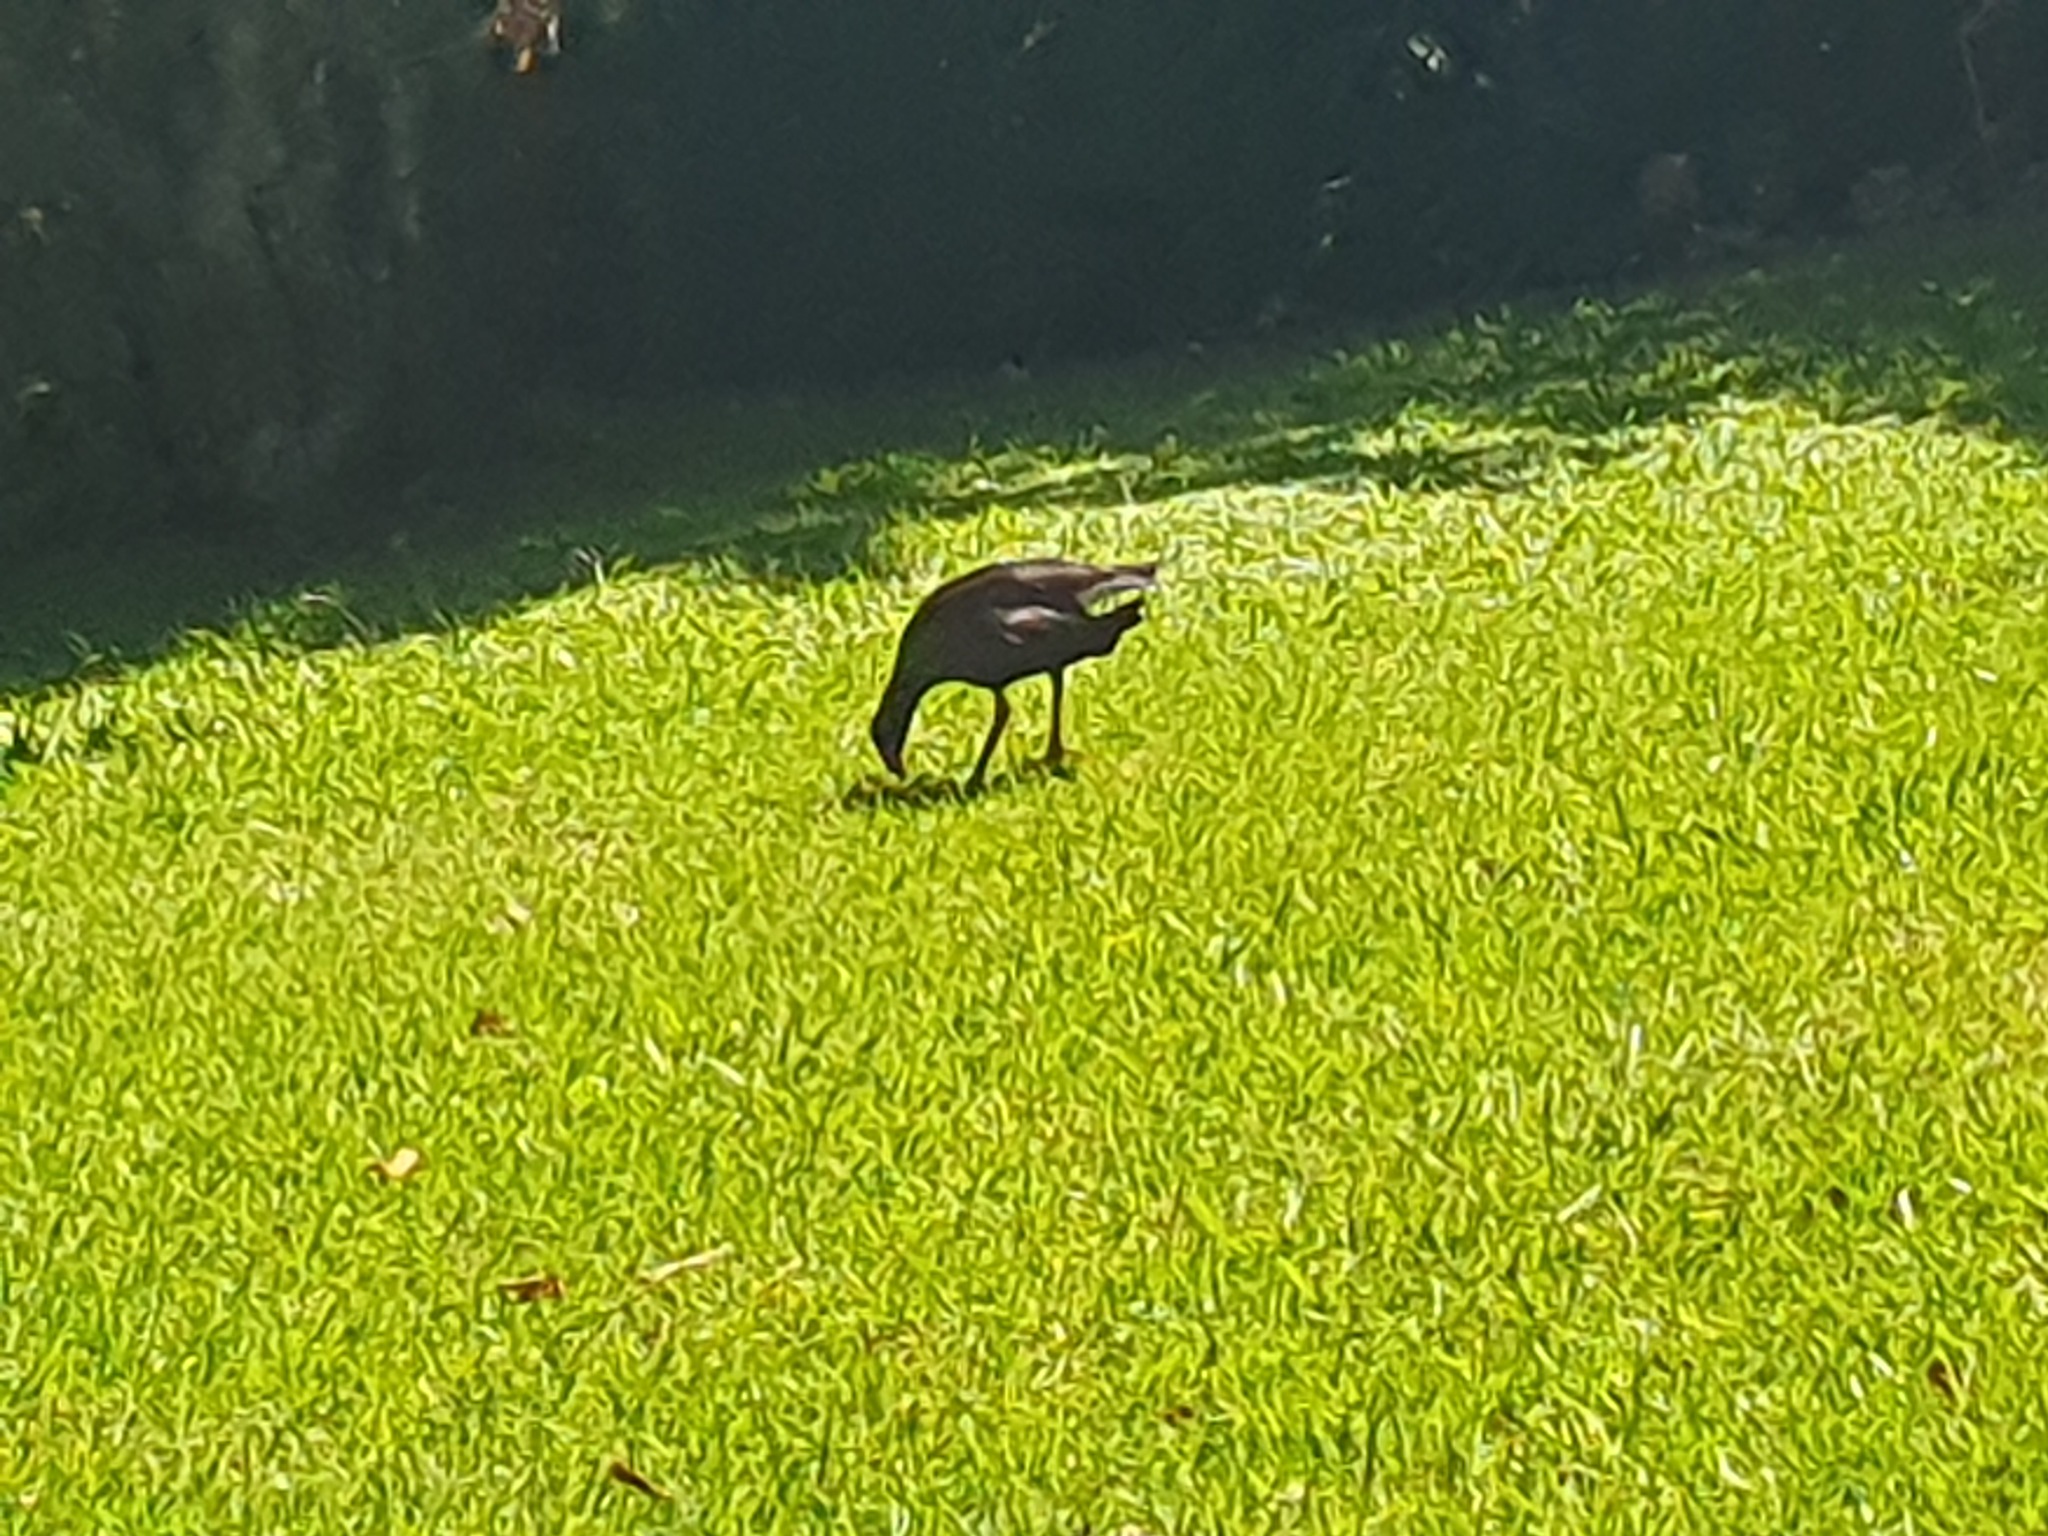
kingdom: Animalia
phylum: Chordata
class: Aves
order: Gruiformes
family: Rallidae
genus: Porphyrio
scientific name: Porphyrio melanotus
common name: Australasian swamphen
